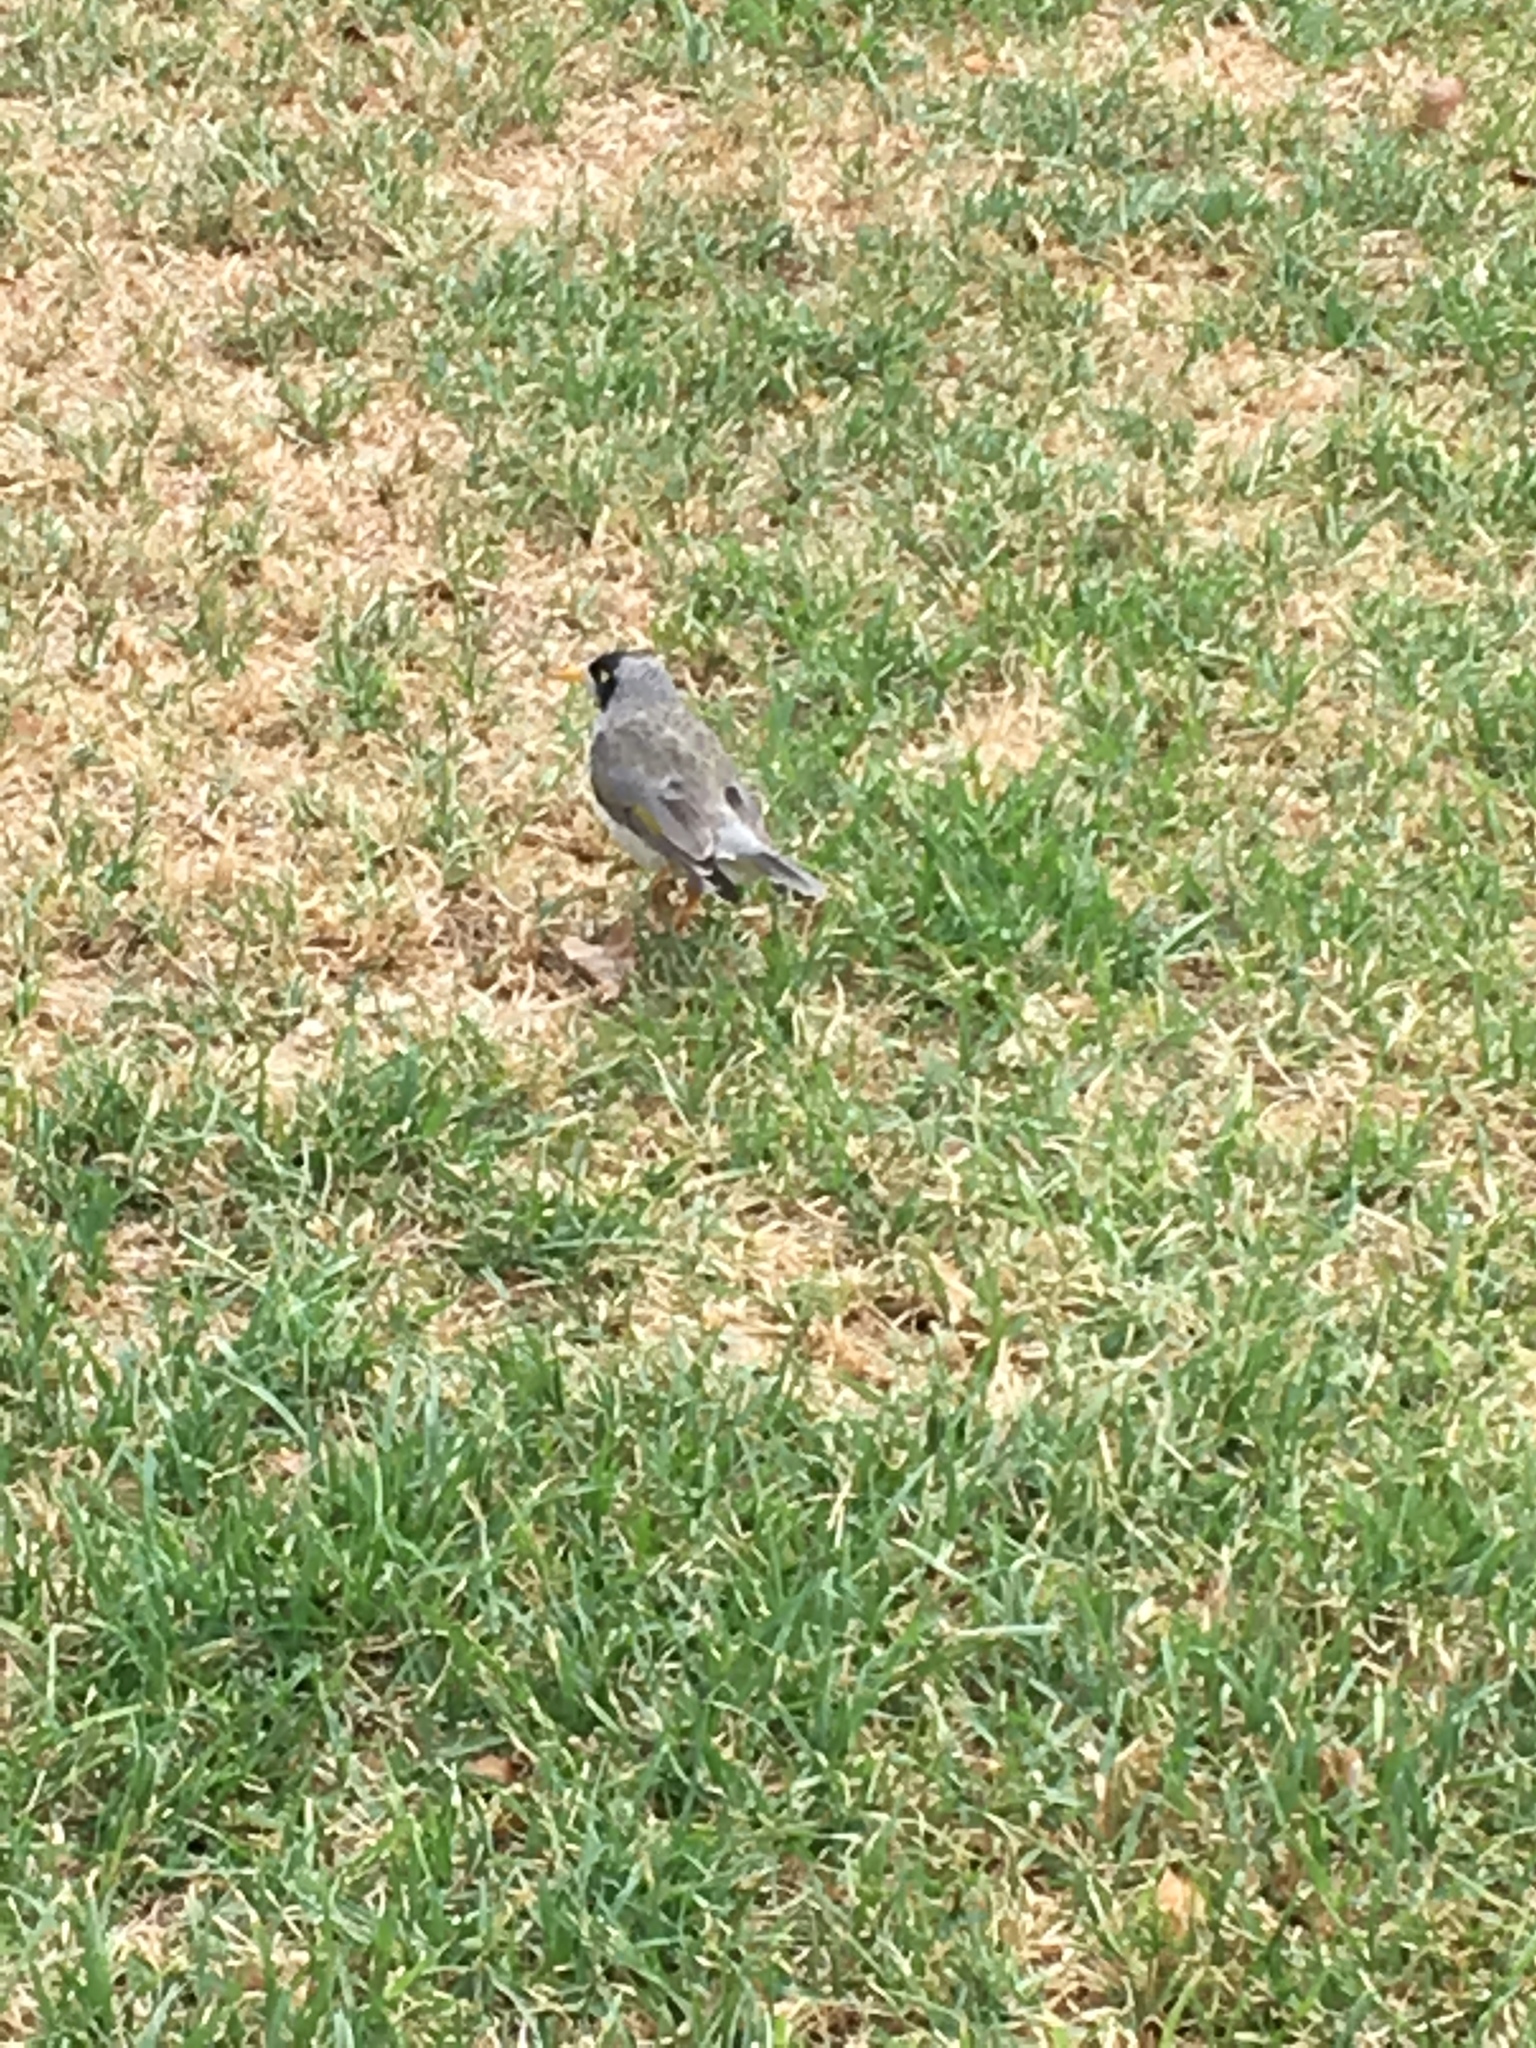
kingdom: Animalia
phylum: Chordata
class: Aves
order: Passeriformes
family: Meliphagidae
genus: Manorina
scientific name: Manorina melanocephala
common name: Noisy miner
